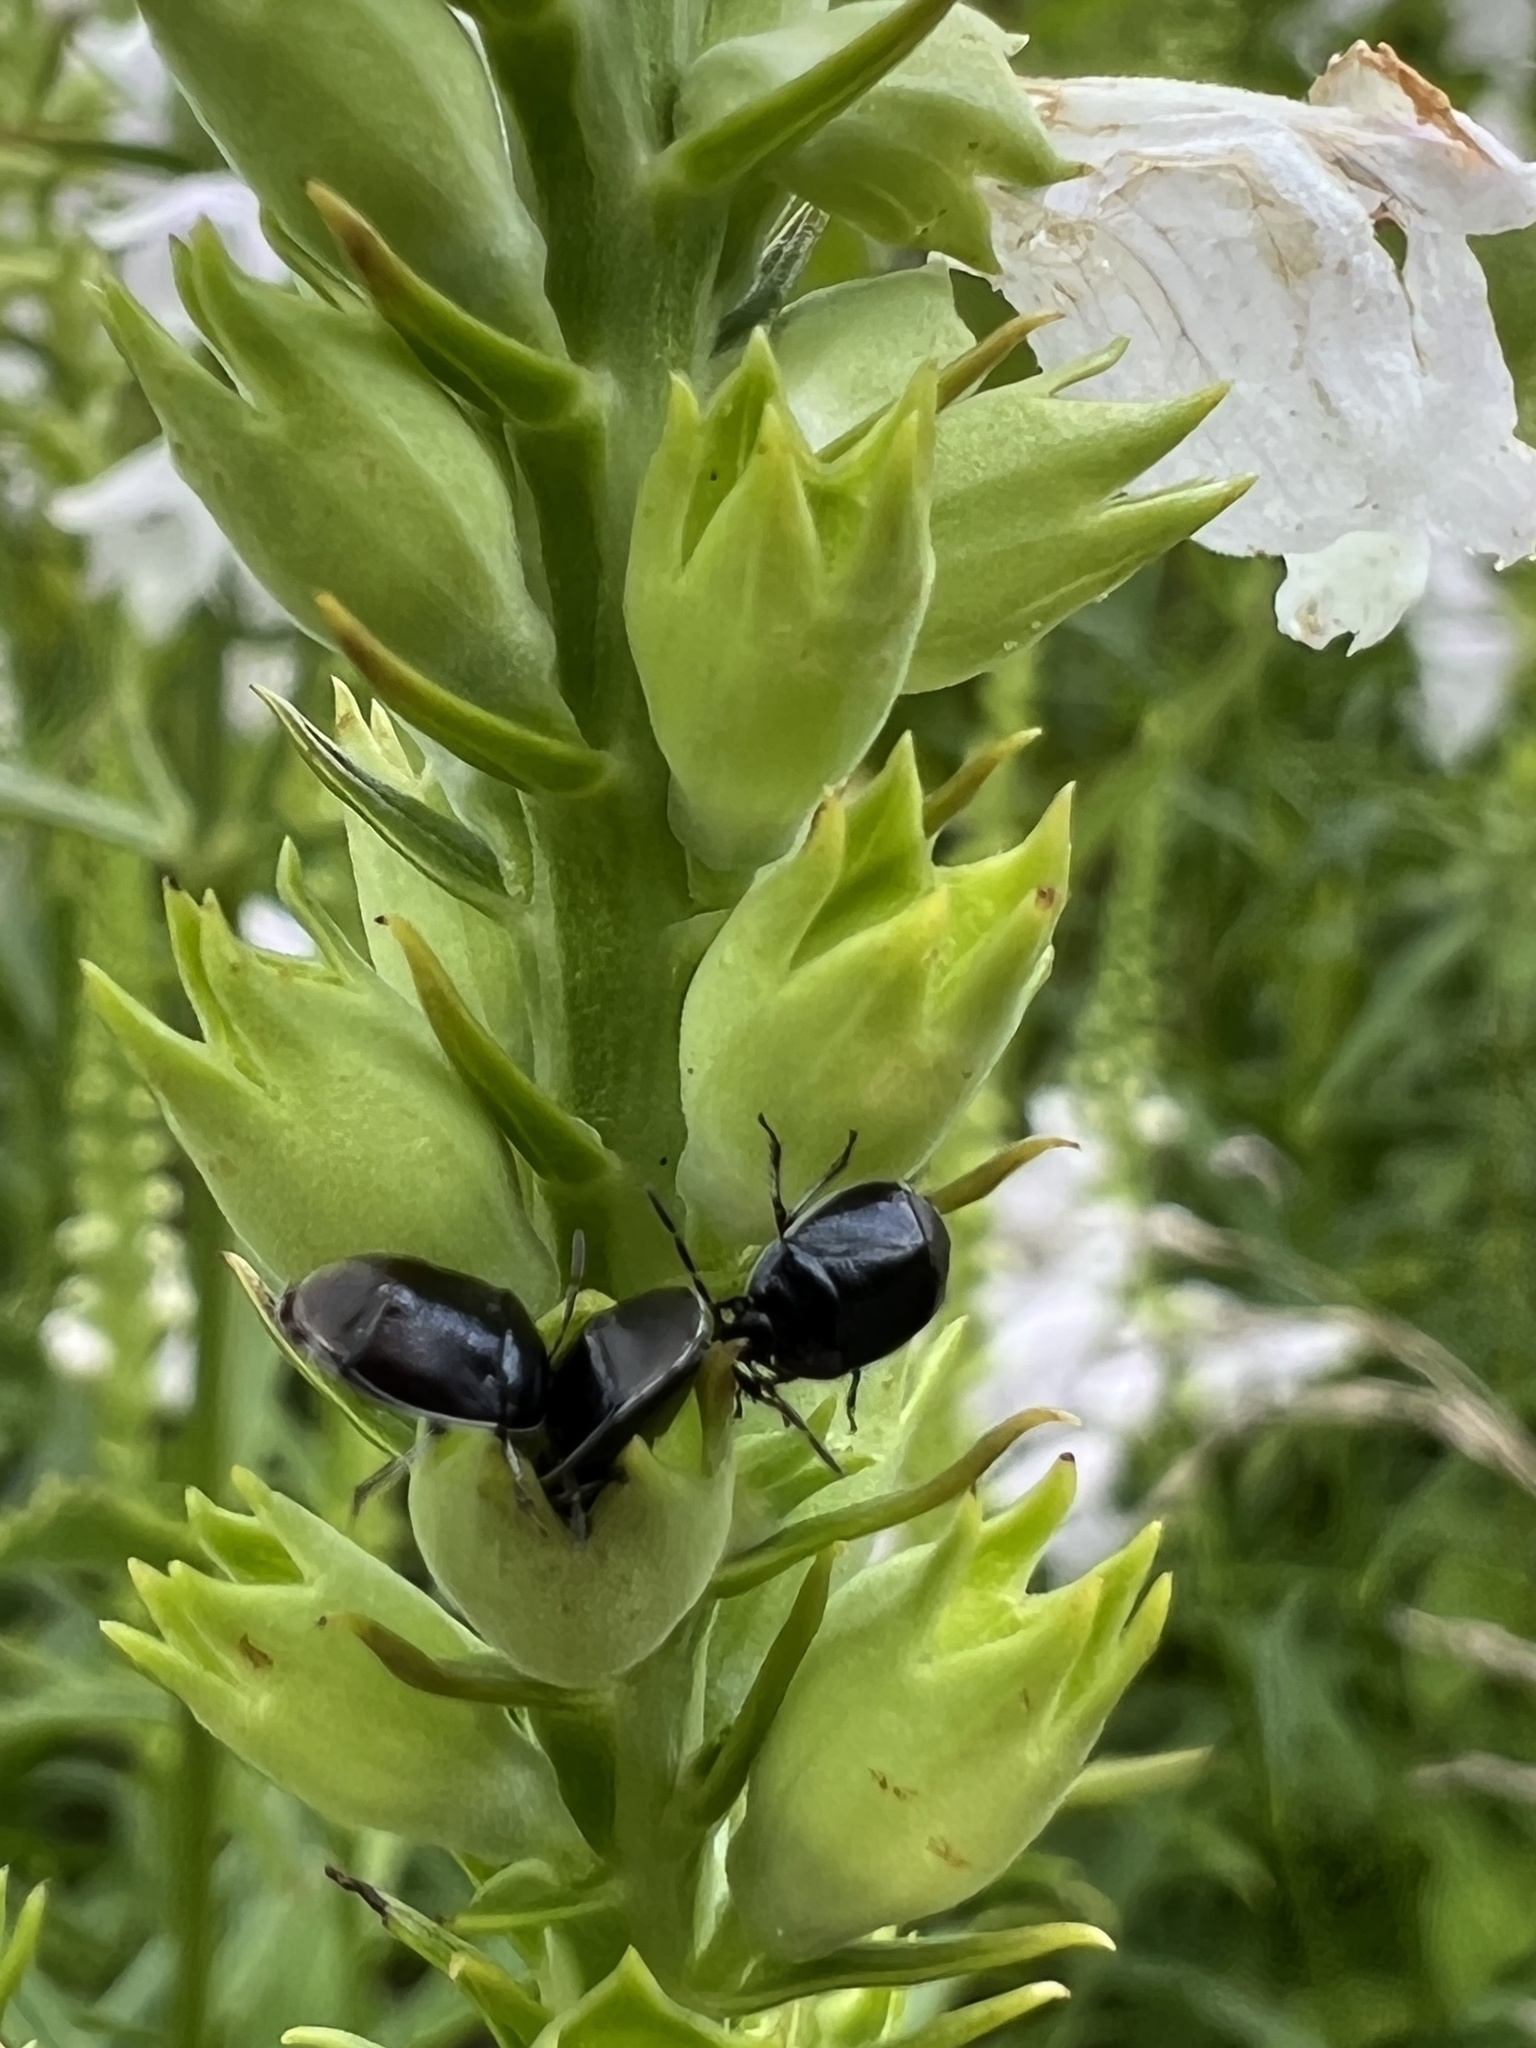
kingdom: Animalia
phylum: Arthropoda
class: Insecta
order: Hemiptera
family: Cydnidae
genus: Sehirus
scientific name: Sehirus cinctus
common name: White-margined burrower bug
